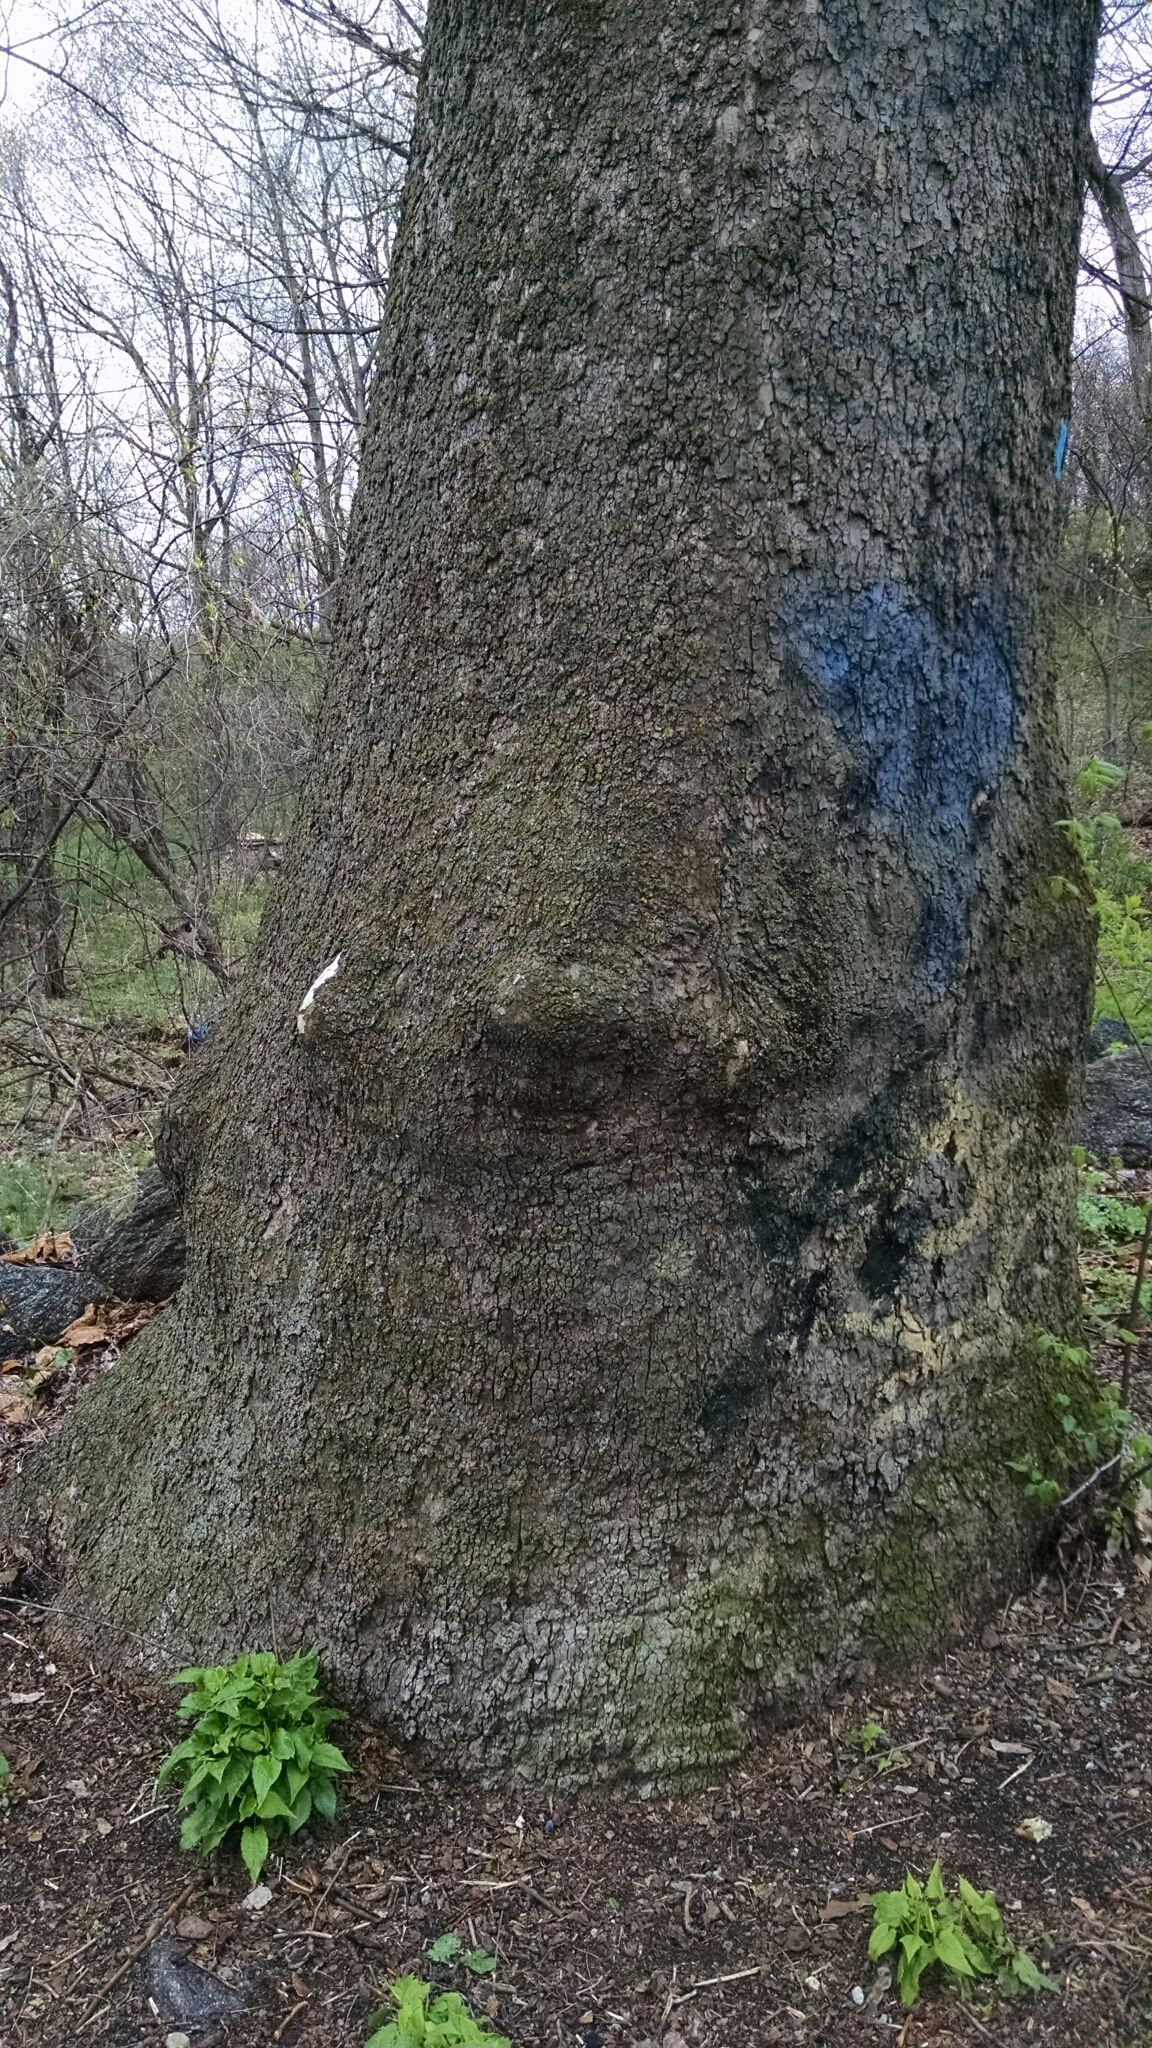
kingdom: Plantae
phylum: Tracheophyta
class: Magnoliopsida
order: Proteales
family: Platanaceae
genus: Platanus
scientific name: Platanus occidentalis
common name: American sycamore
